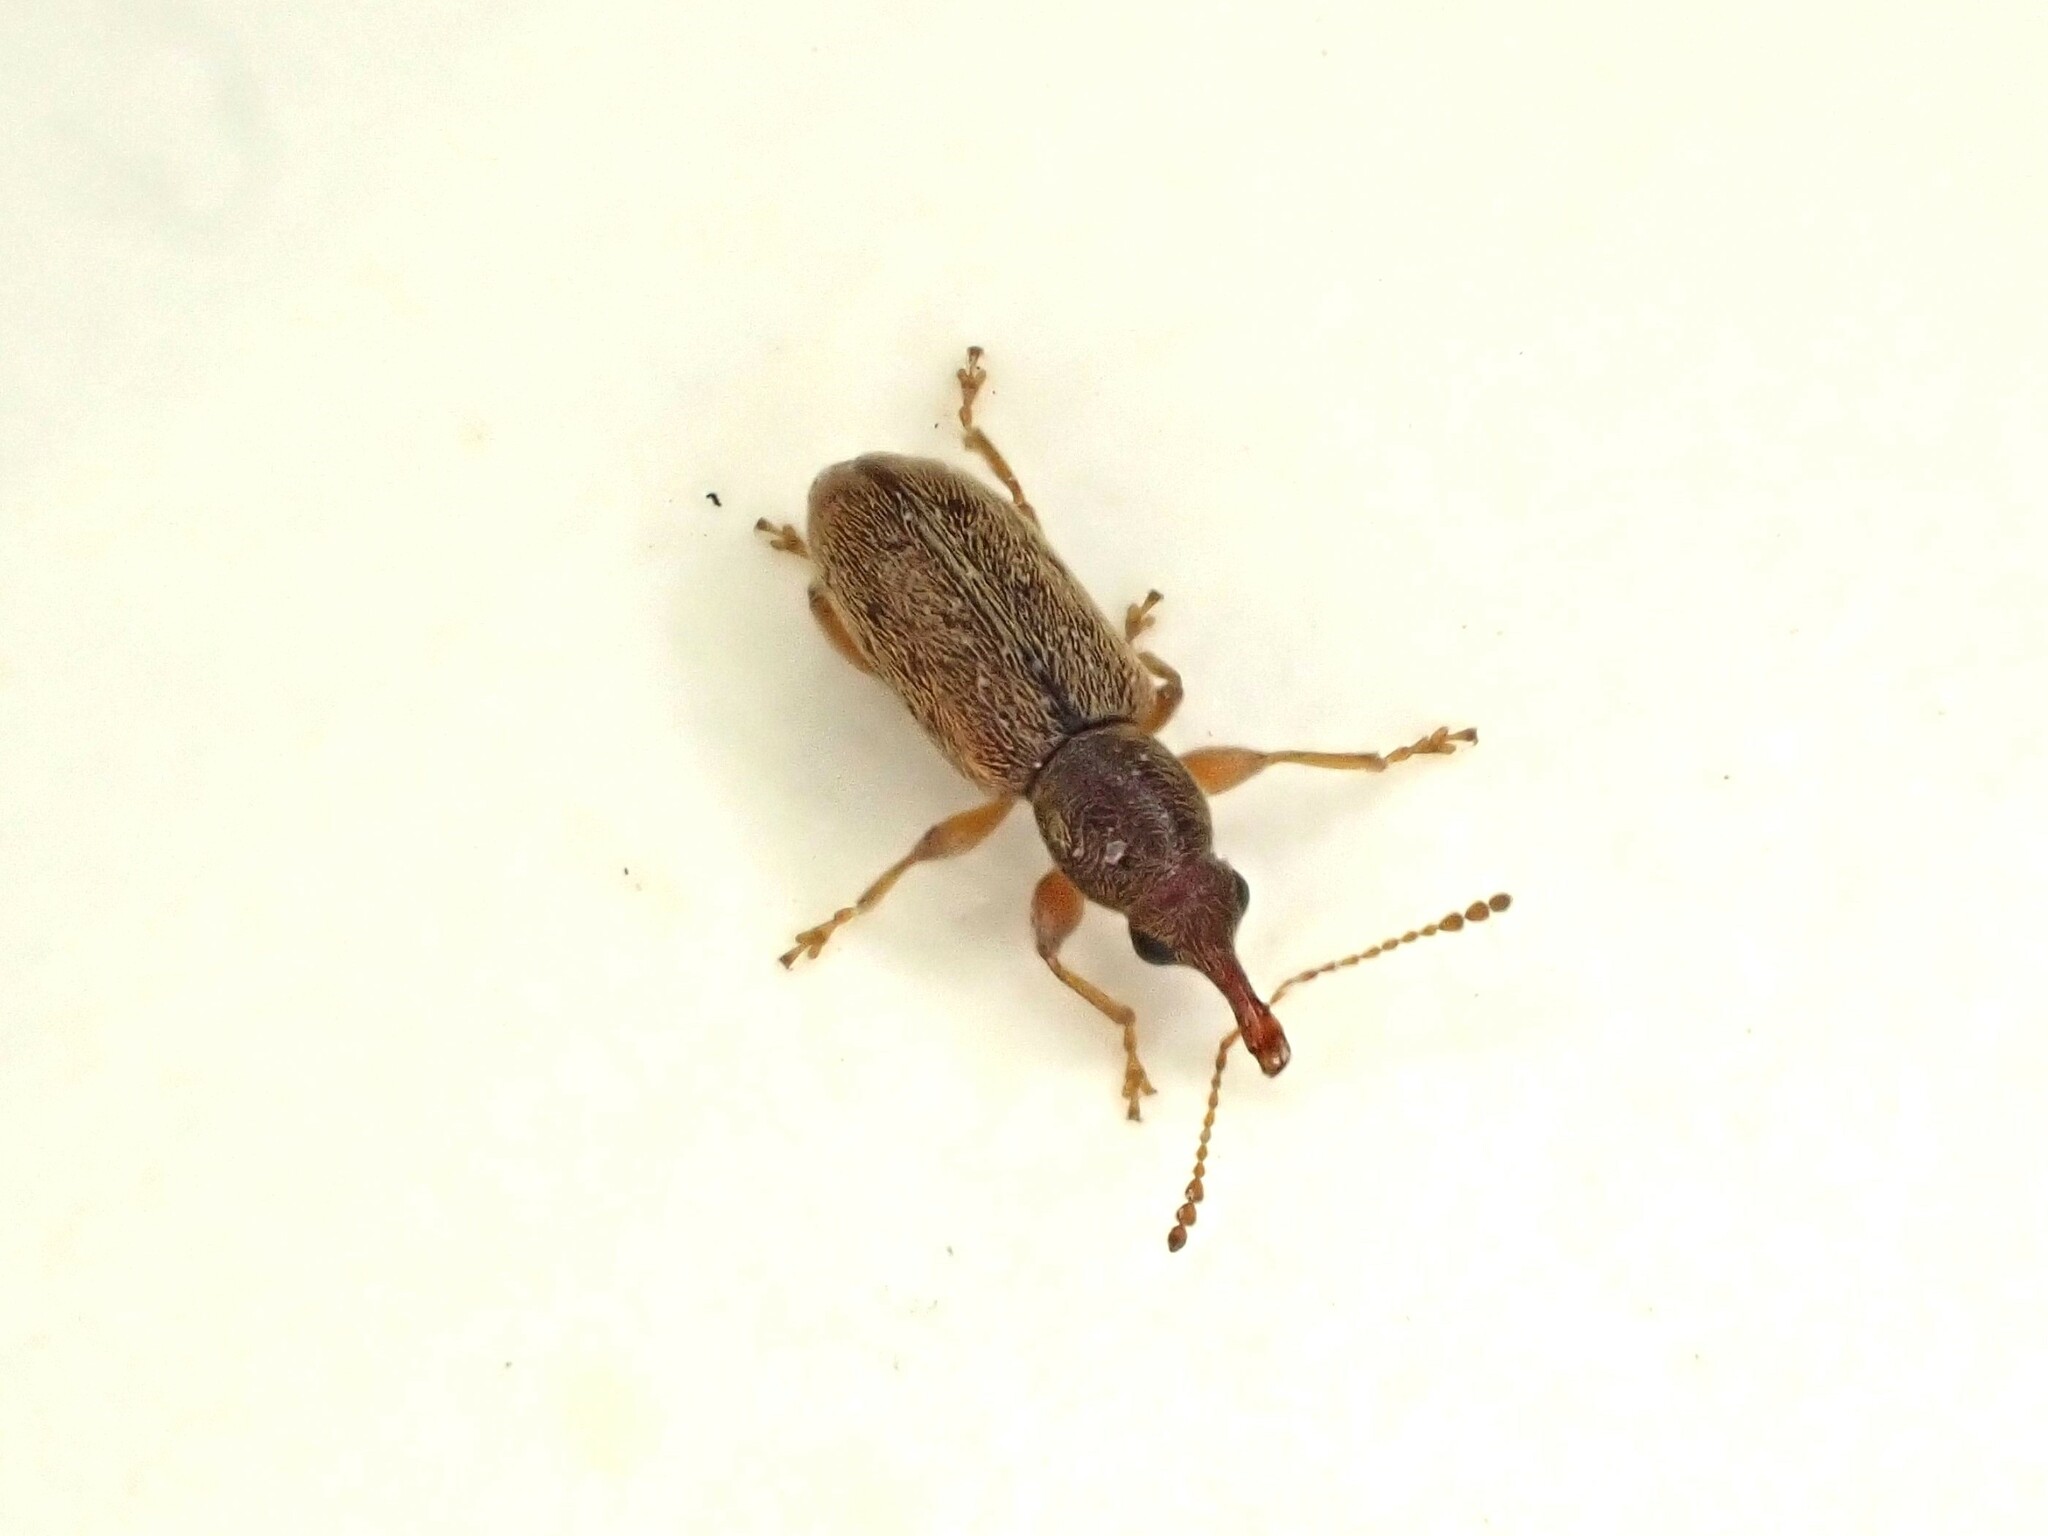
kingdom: Animalia
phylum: Arthropoda
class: Insecta
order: Coleoptera
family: Nemonychidae
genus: Rhinorhynchus
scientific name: Rhinorhynchus rufulus
